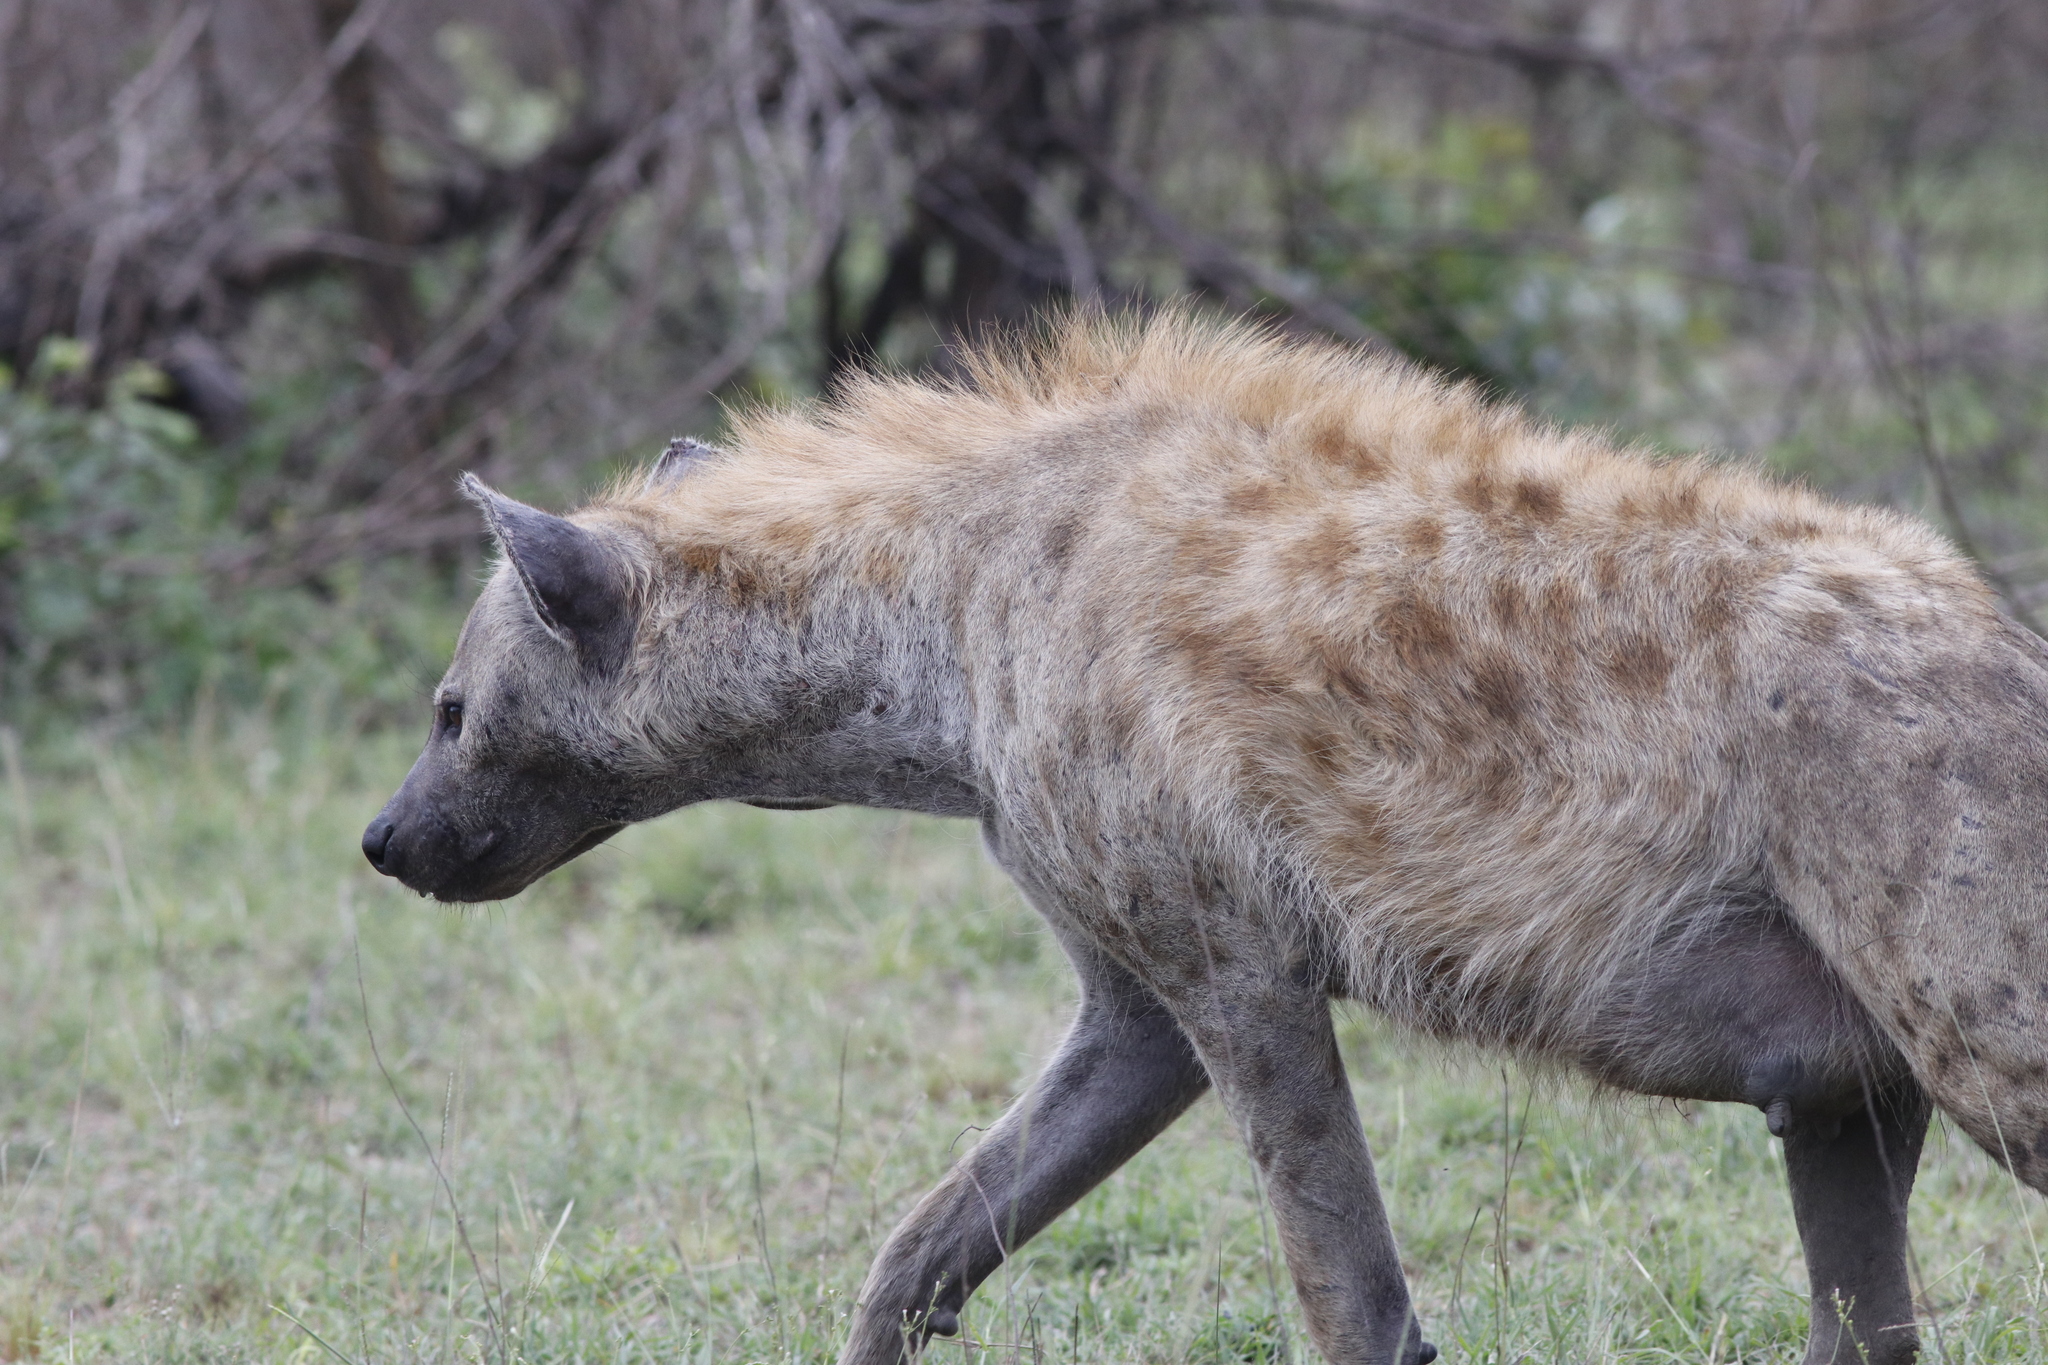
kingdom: Animalia
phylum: Chordata
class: Mammalia
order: Carnivora
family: Hyaenidae
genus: Crocuta
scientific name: Crocuta crocuta
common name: Spotted hyaena
